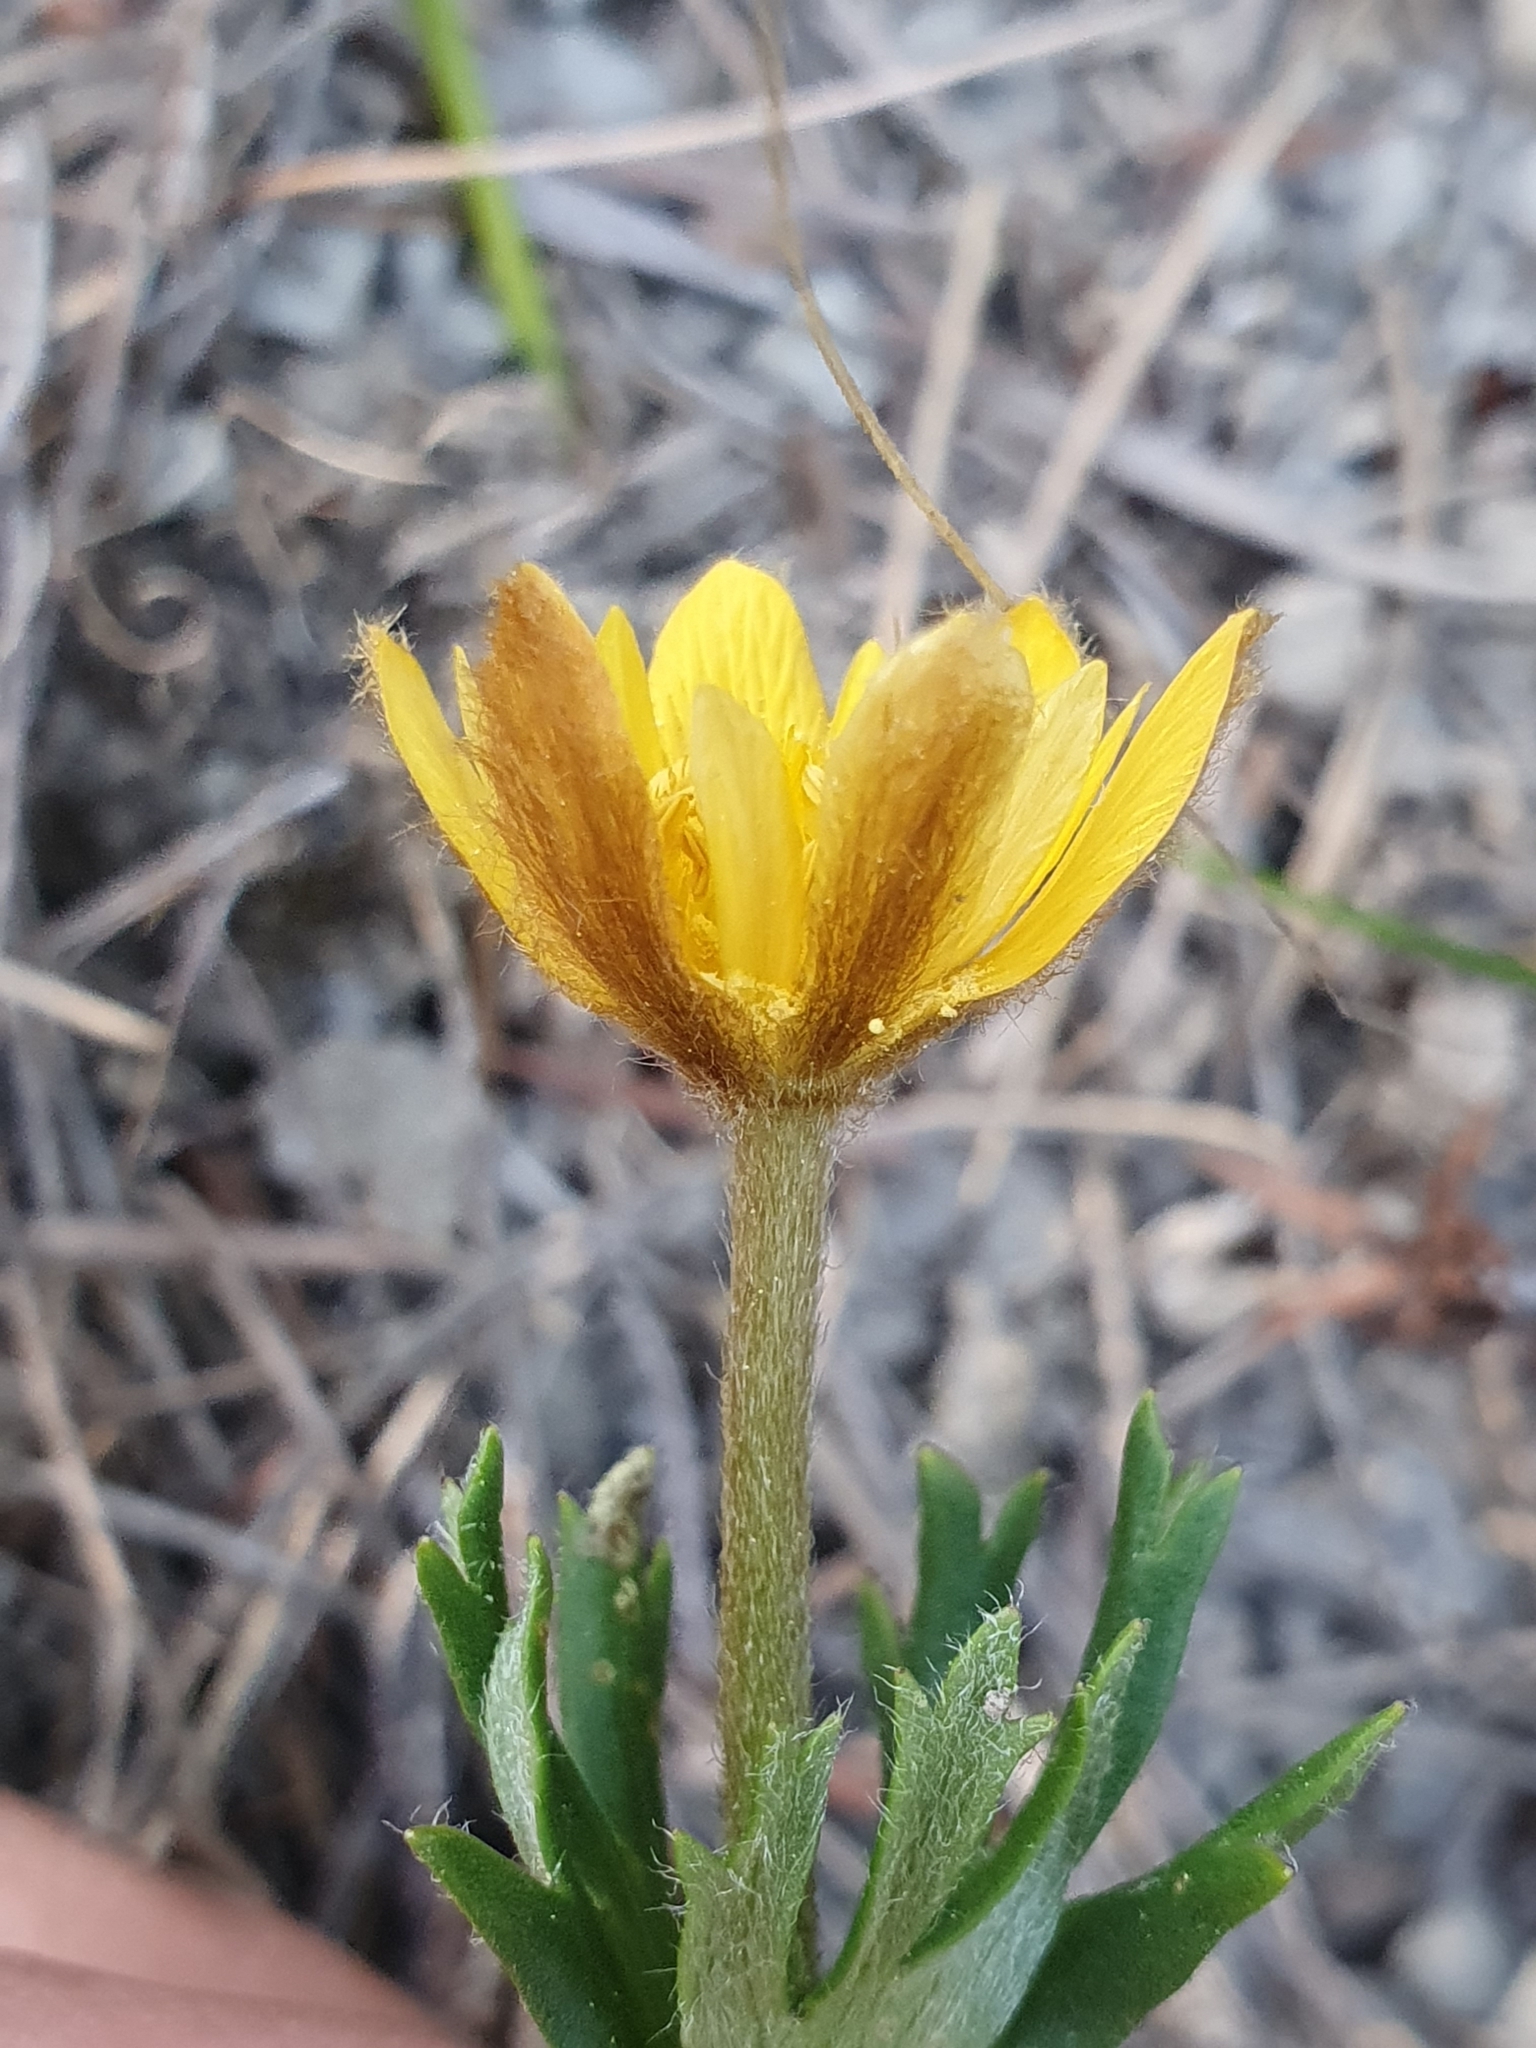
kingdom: Plantae
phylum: Tracheophyta
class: Magnoliopsida
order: Ranunculales
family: Ranunculaceae
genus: Anemone
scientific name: Anemone palmata
